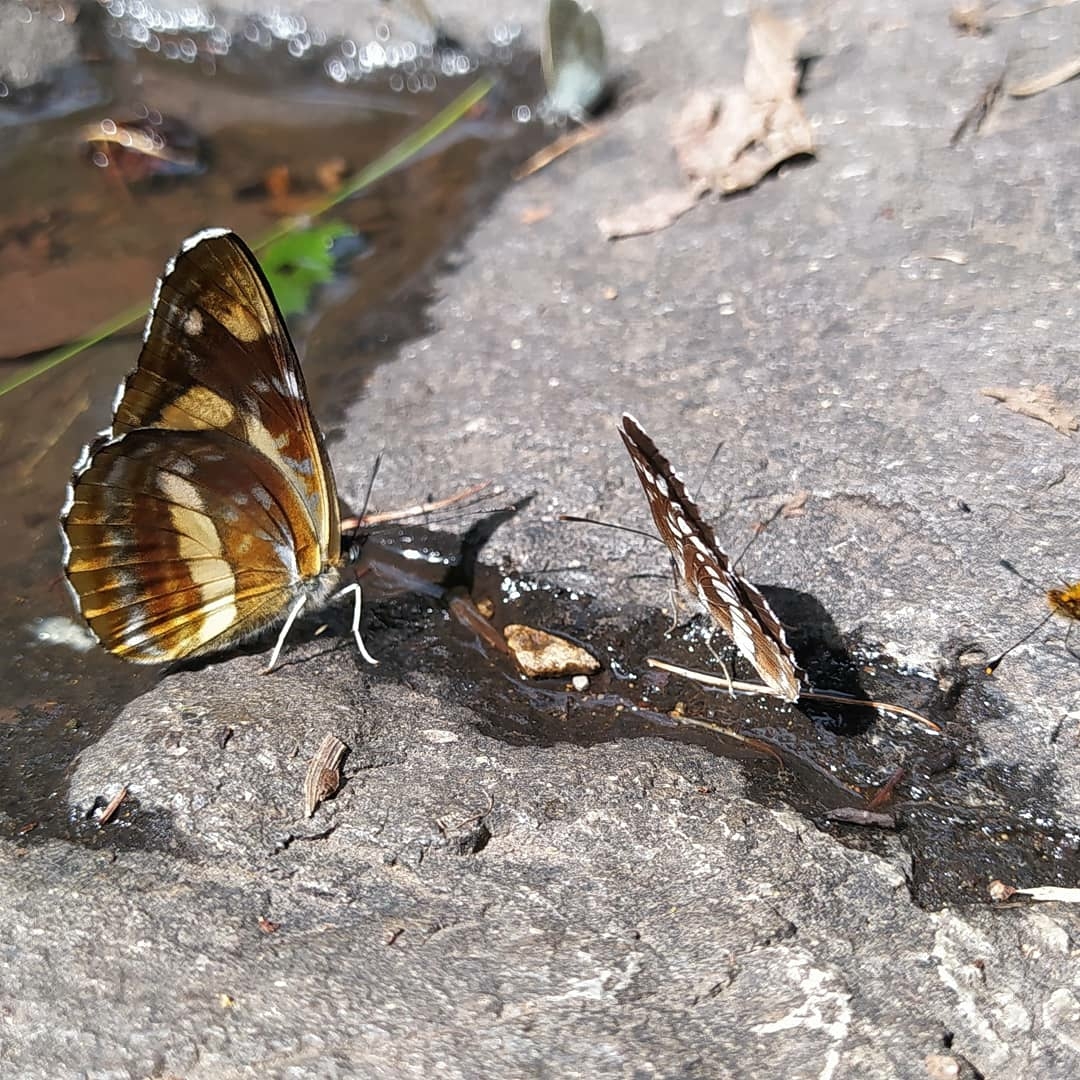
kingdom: Animalia
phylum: Arthropoda
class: Insecta
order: Lepidoptera
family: Nymphalidae
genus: Neptis
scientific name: Neptis tshetverikovi
